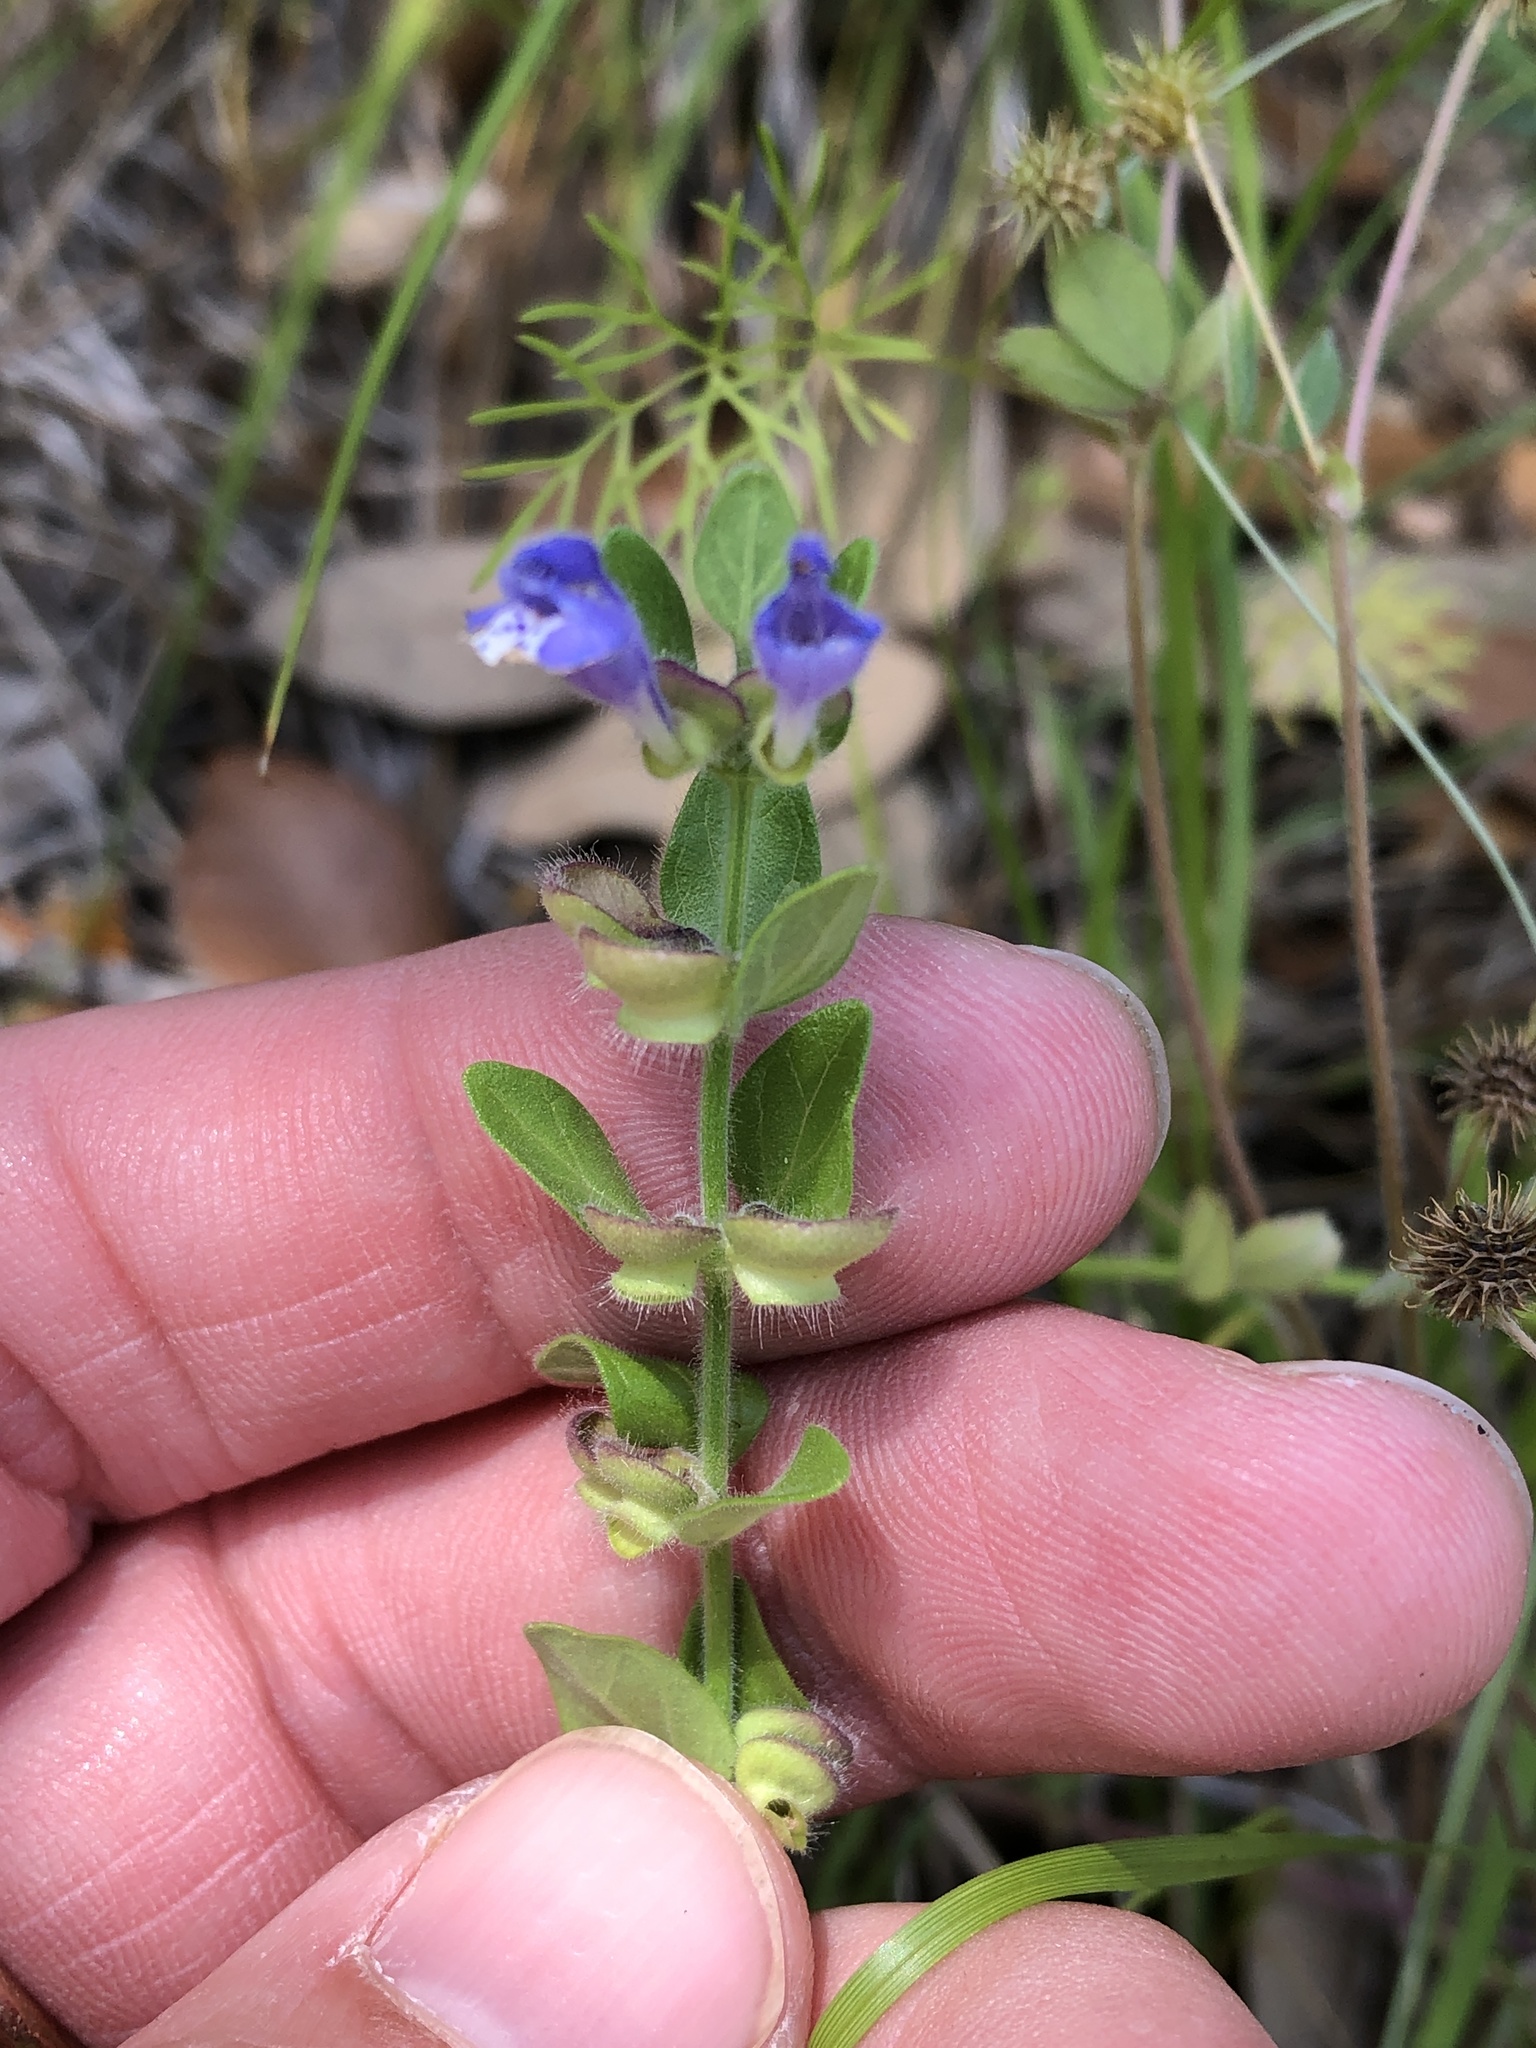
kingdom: Plantae
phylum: Tracheophyta
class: Magnoliopsida
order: Lamiales
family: Lamiaceae
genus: Scutellaria
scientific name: Scutellaria drummondii
